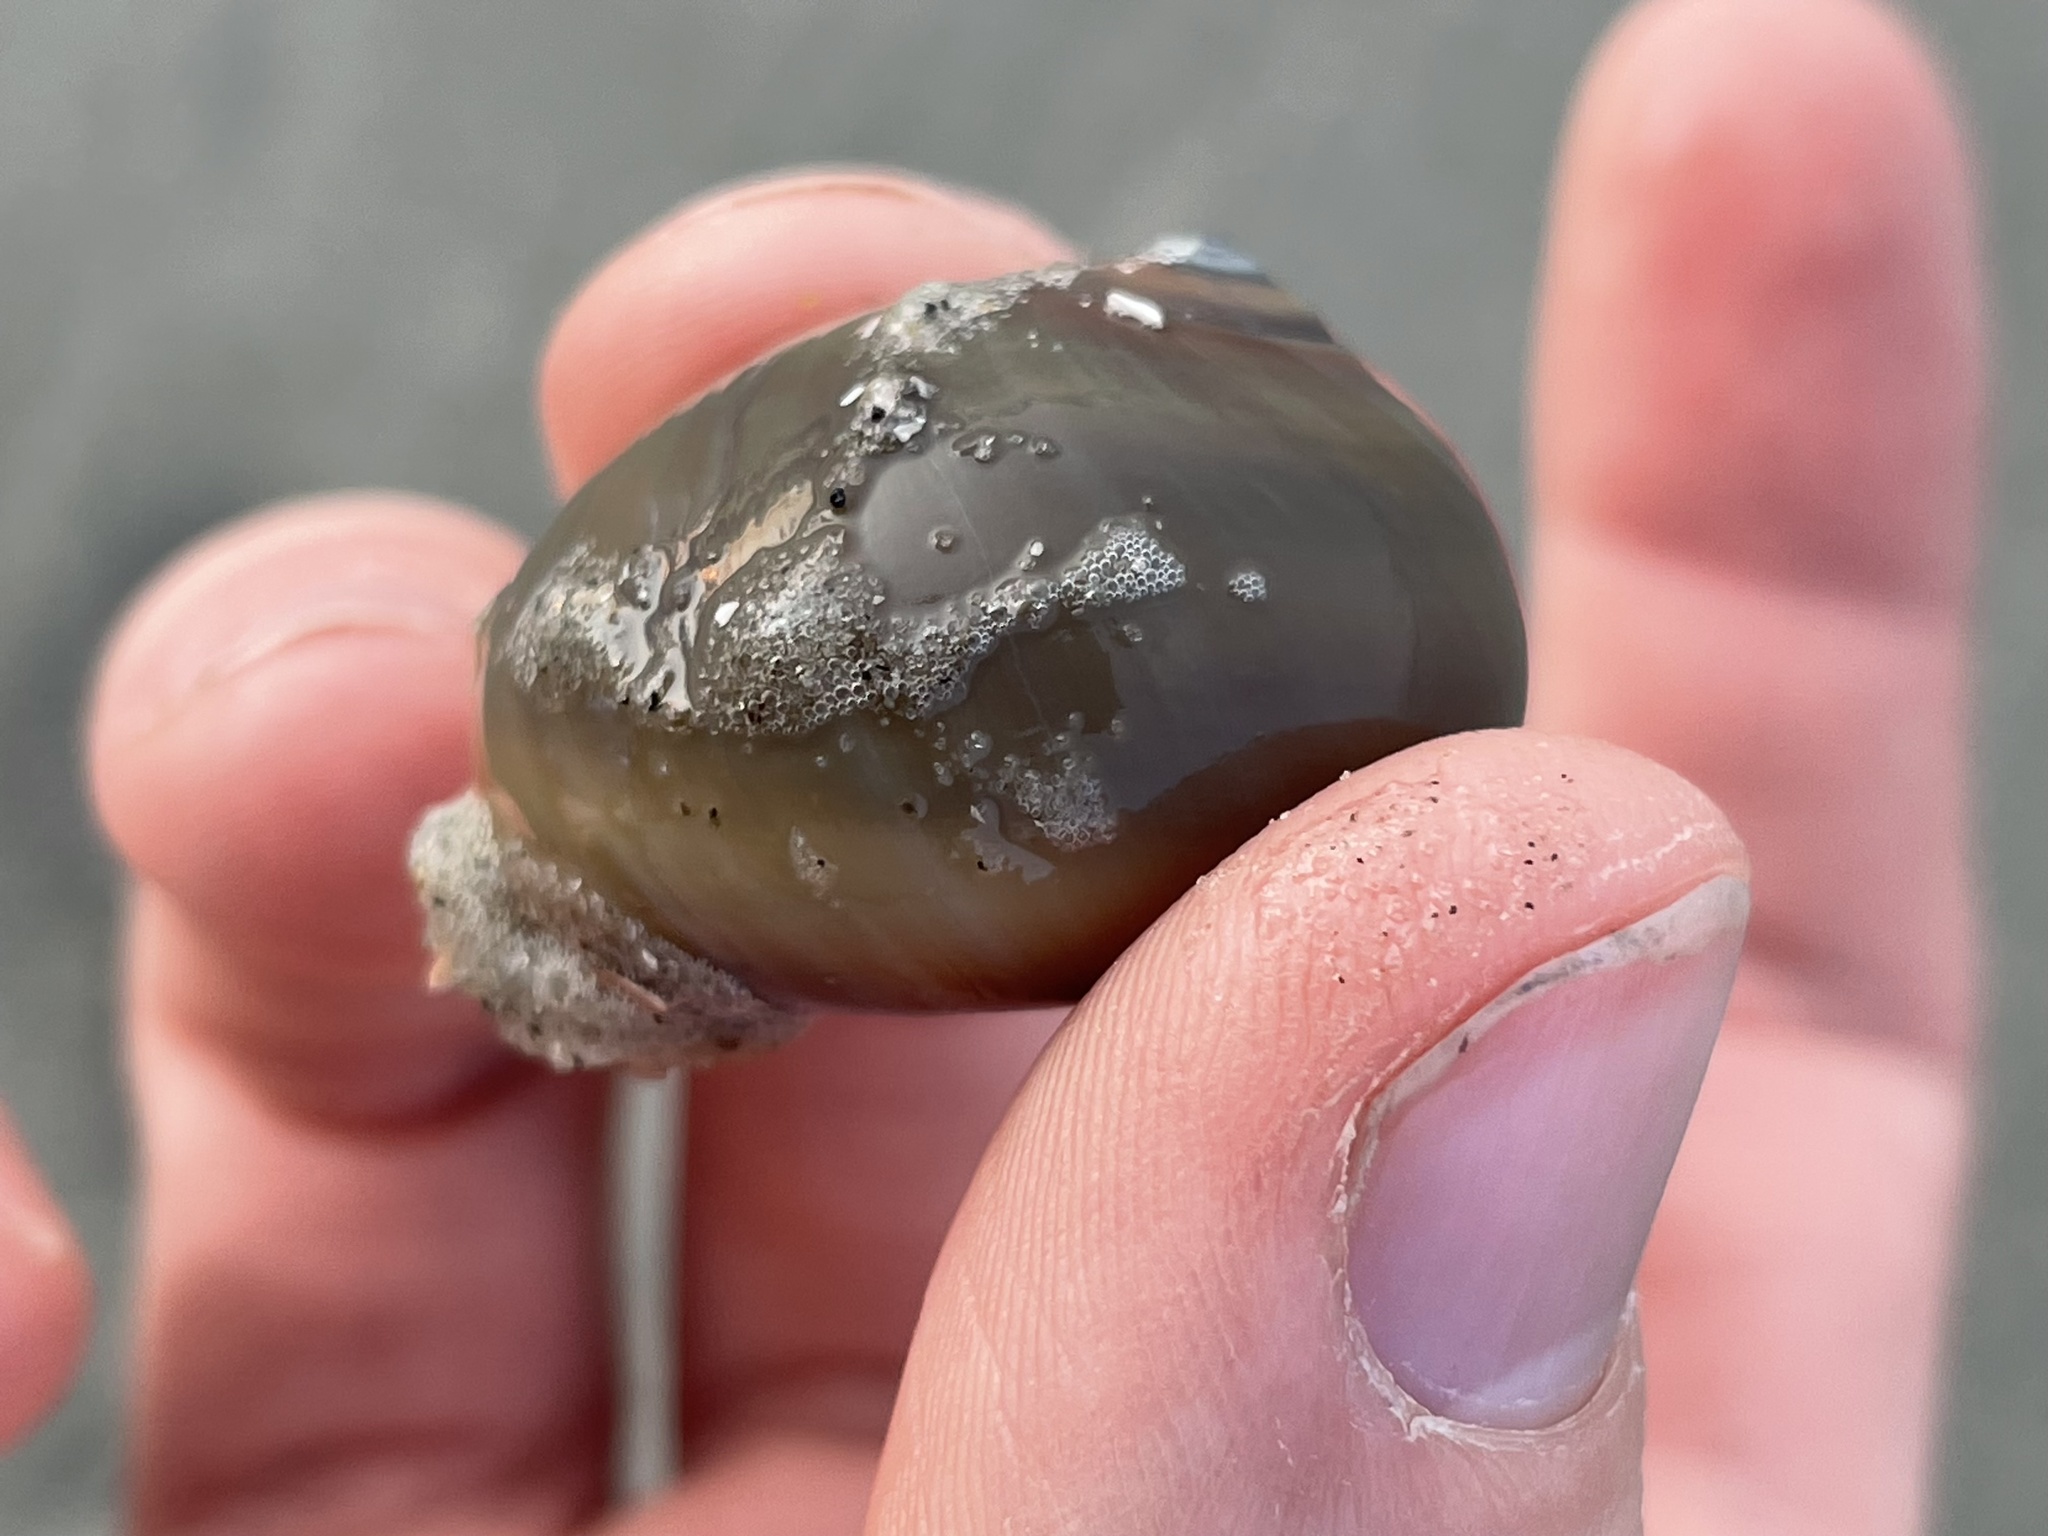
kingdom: Animalia
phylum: Mollusca
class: Gastropoda
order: Littorinimorpha
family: Naticidae
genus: Neverita
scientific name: Neverita duplicata
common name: Lobed moonsnail
